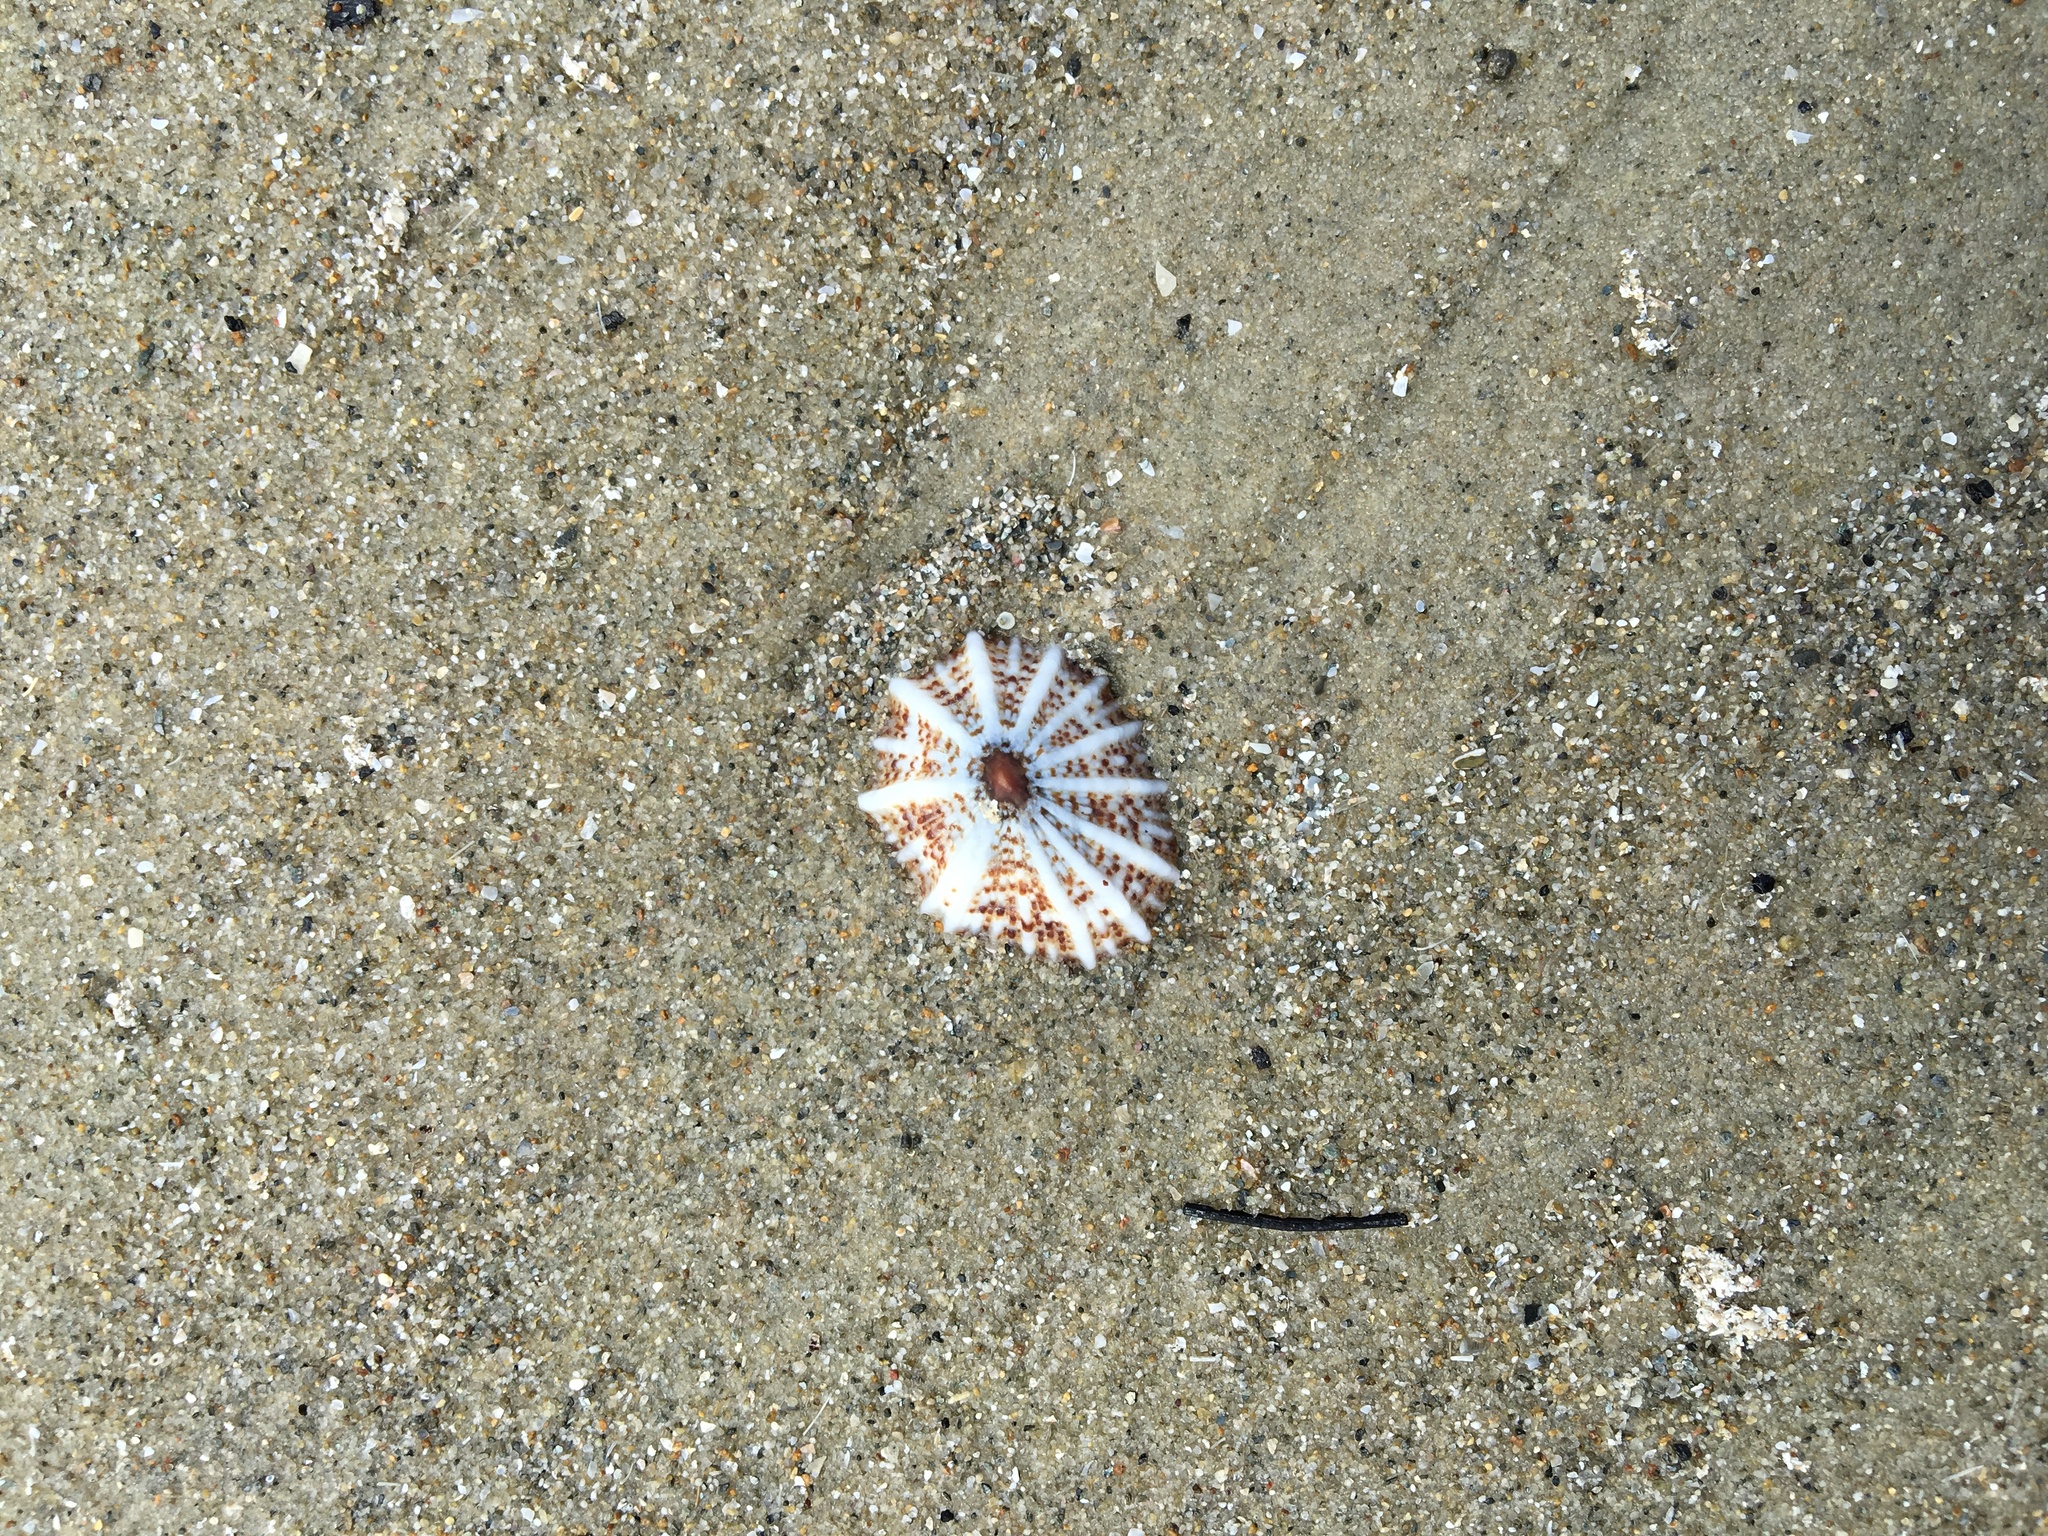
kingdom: Animalia
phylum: Mollusca
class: Gastropoda
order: Siphonariida
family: Siphonariidae
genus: Siphonaria
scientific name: Siphonaria laciniosa
